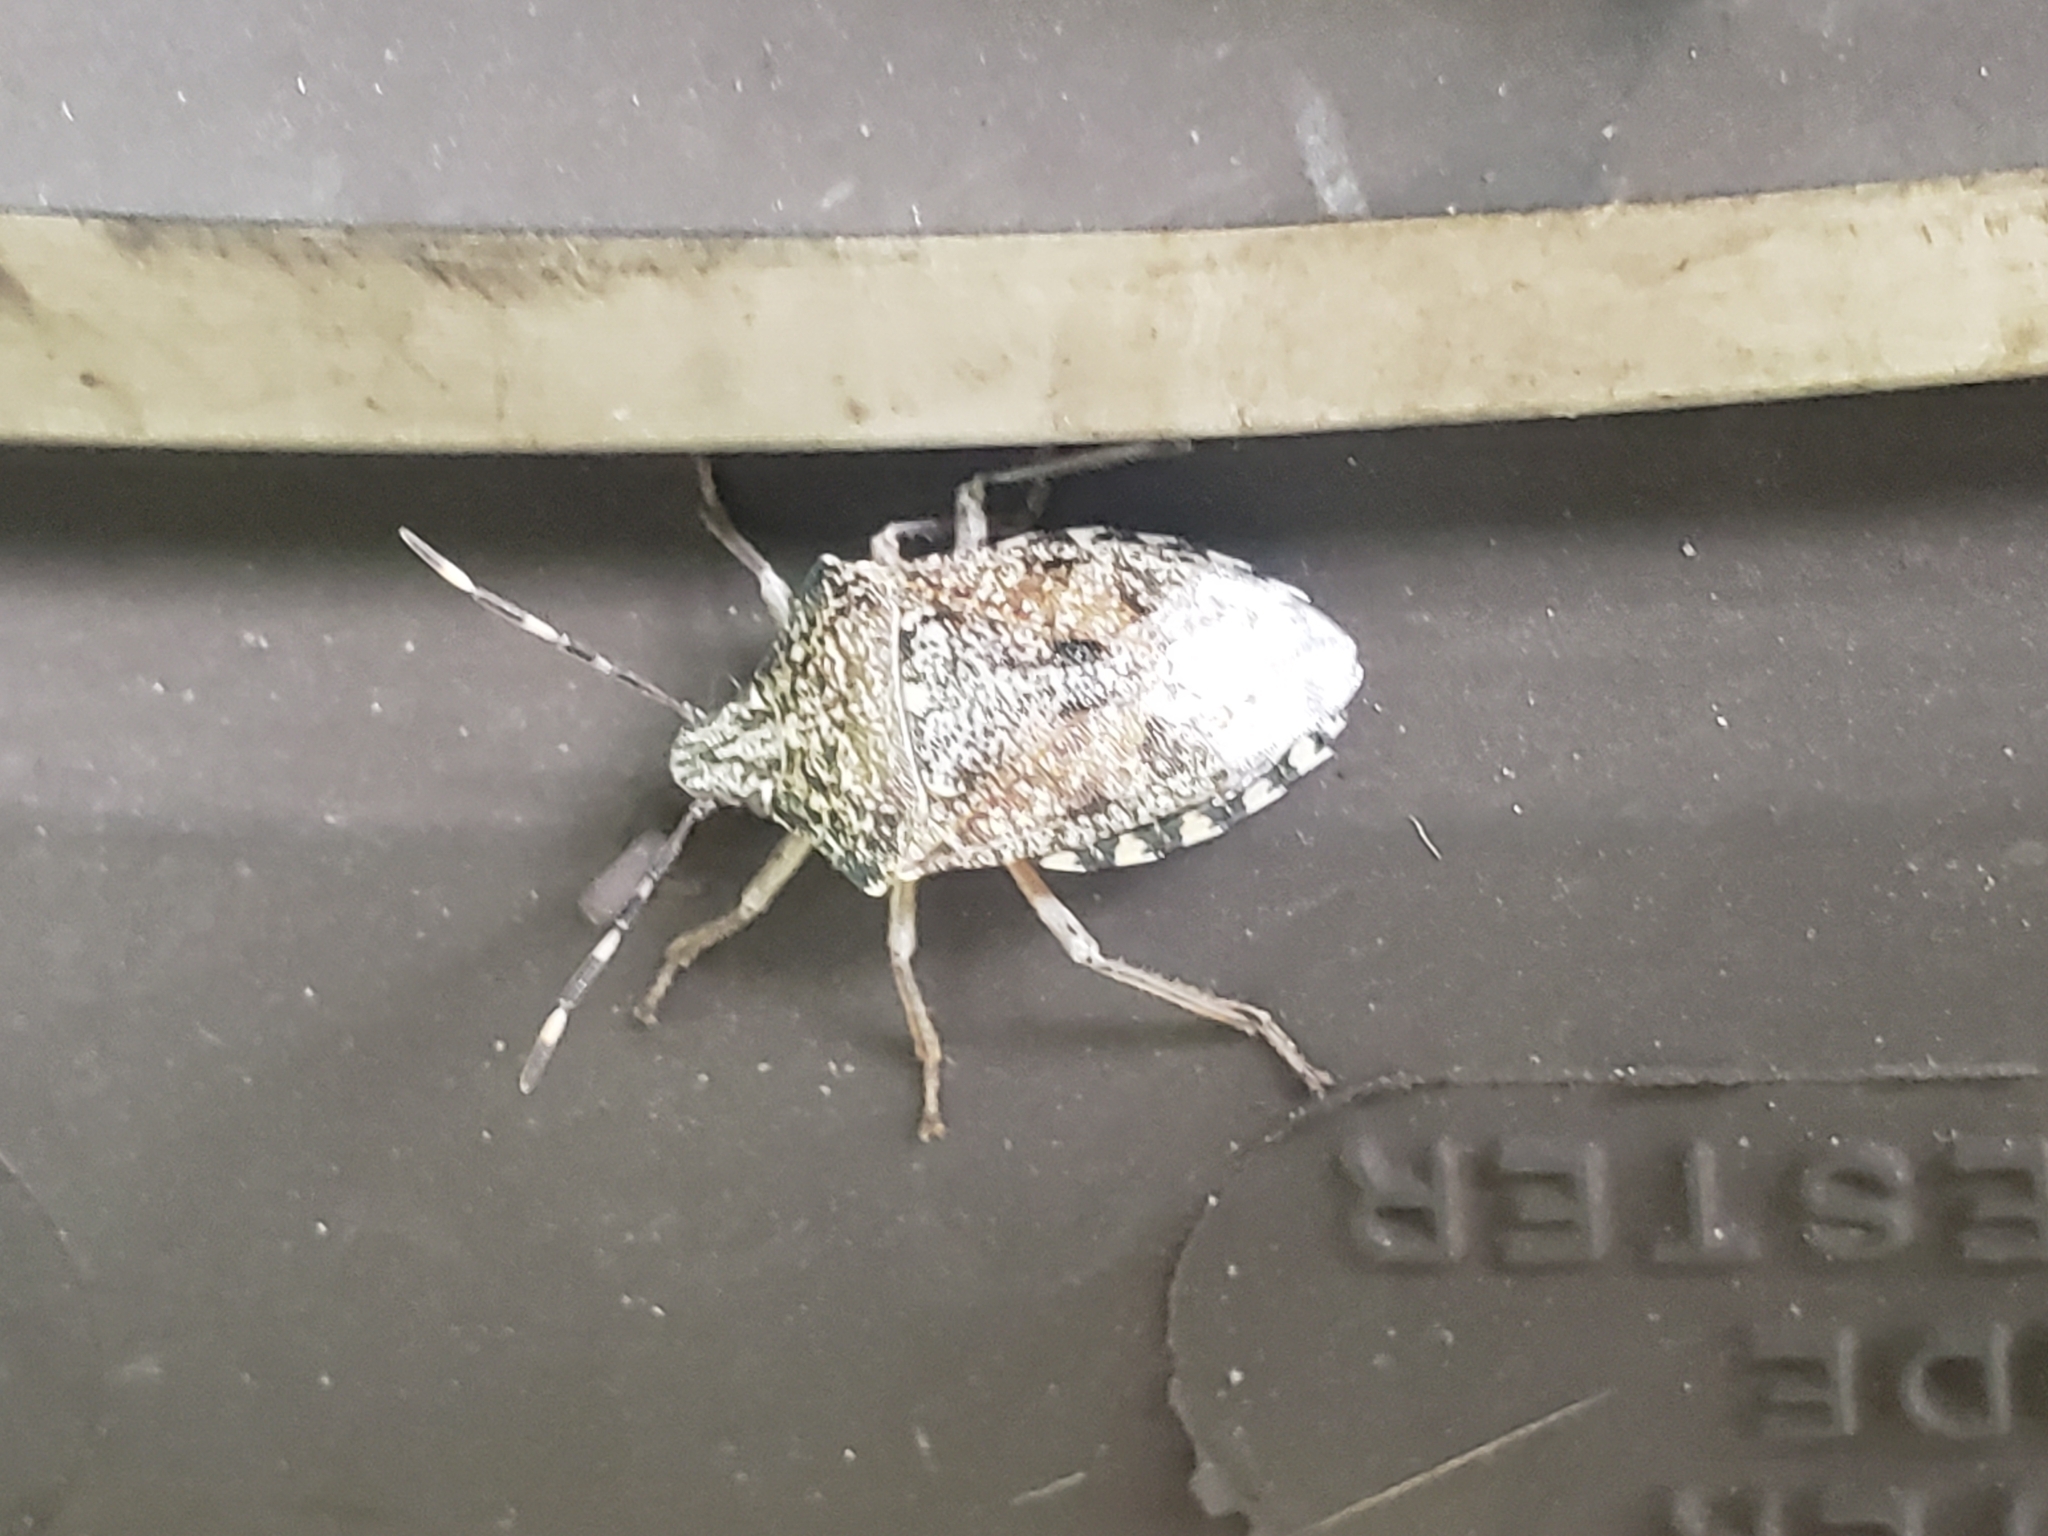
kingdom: Animalia
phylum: Arthropoda
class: Insecta
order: Hemiptera
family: Pentatomidae
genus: Rhaphigaster
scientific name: Rhaphigaster nebulosa
